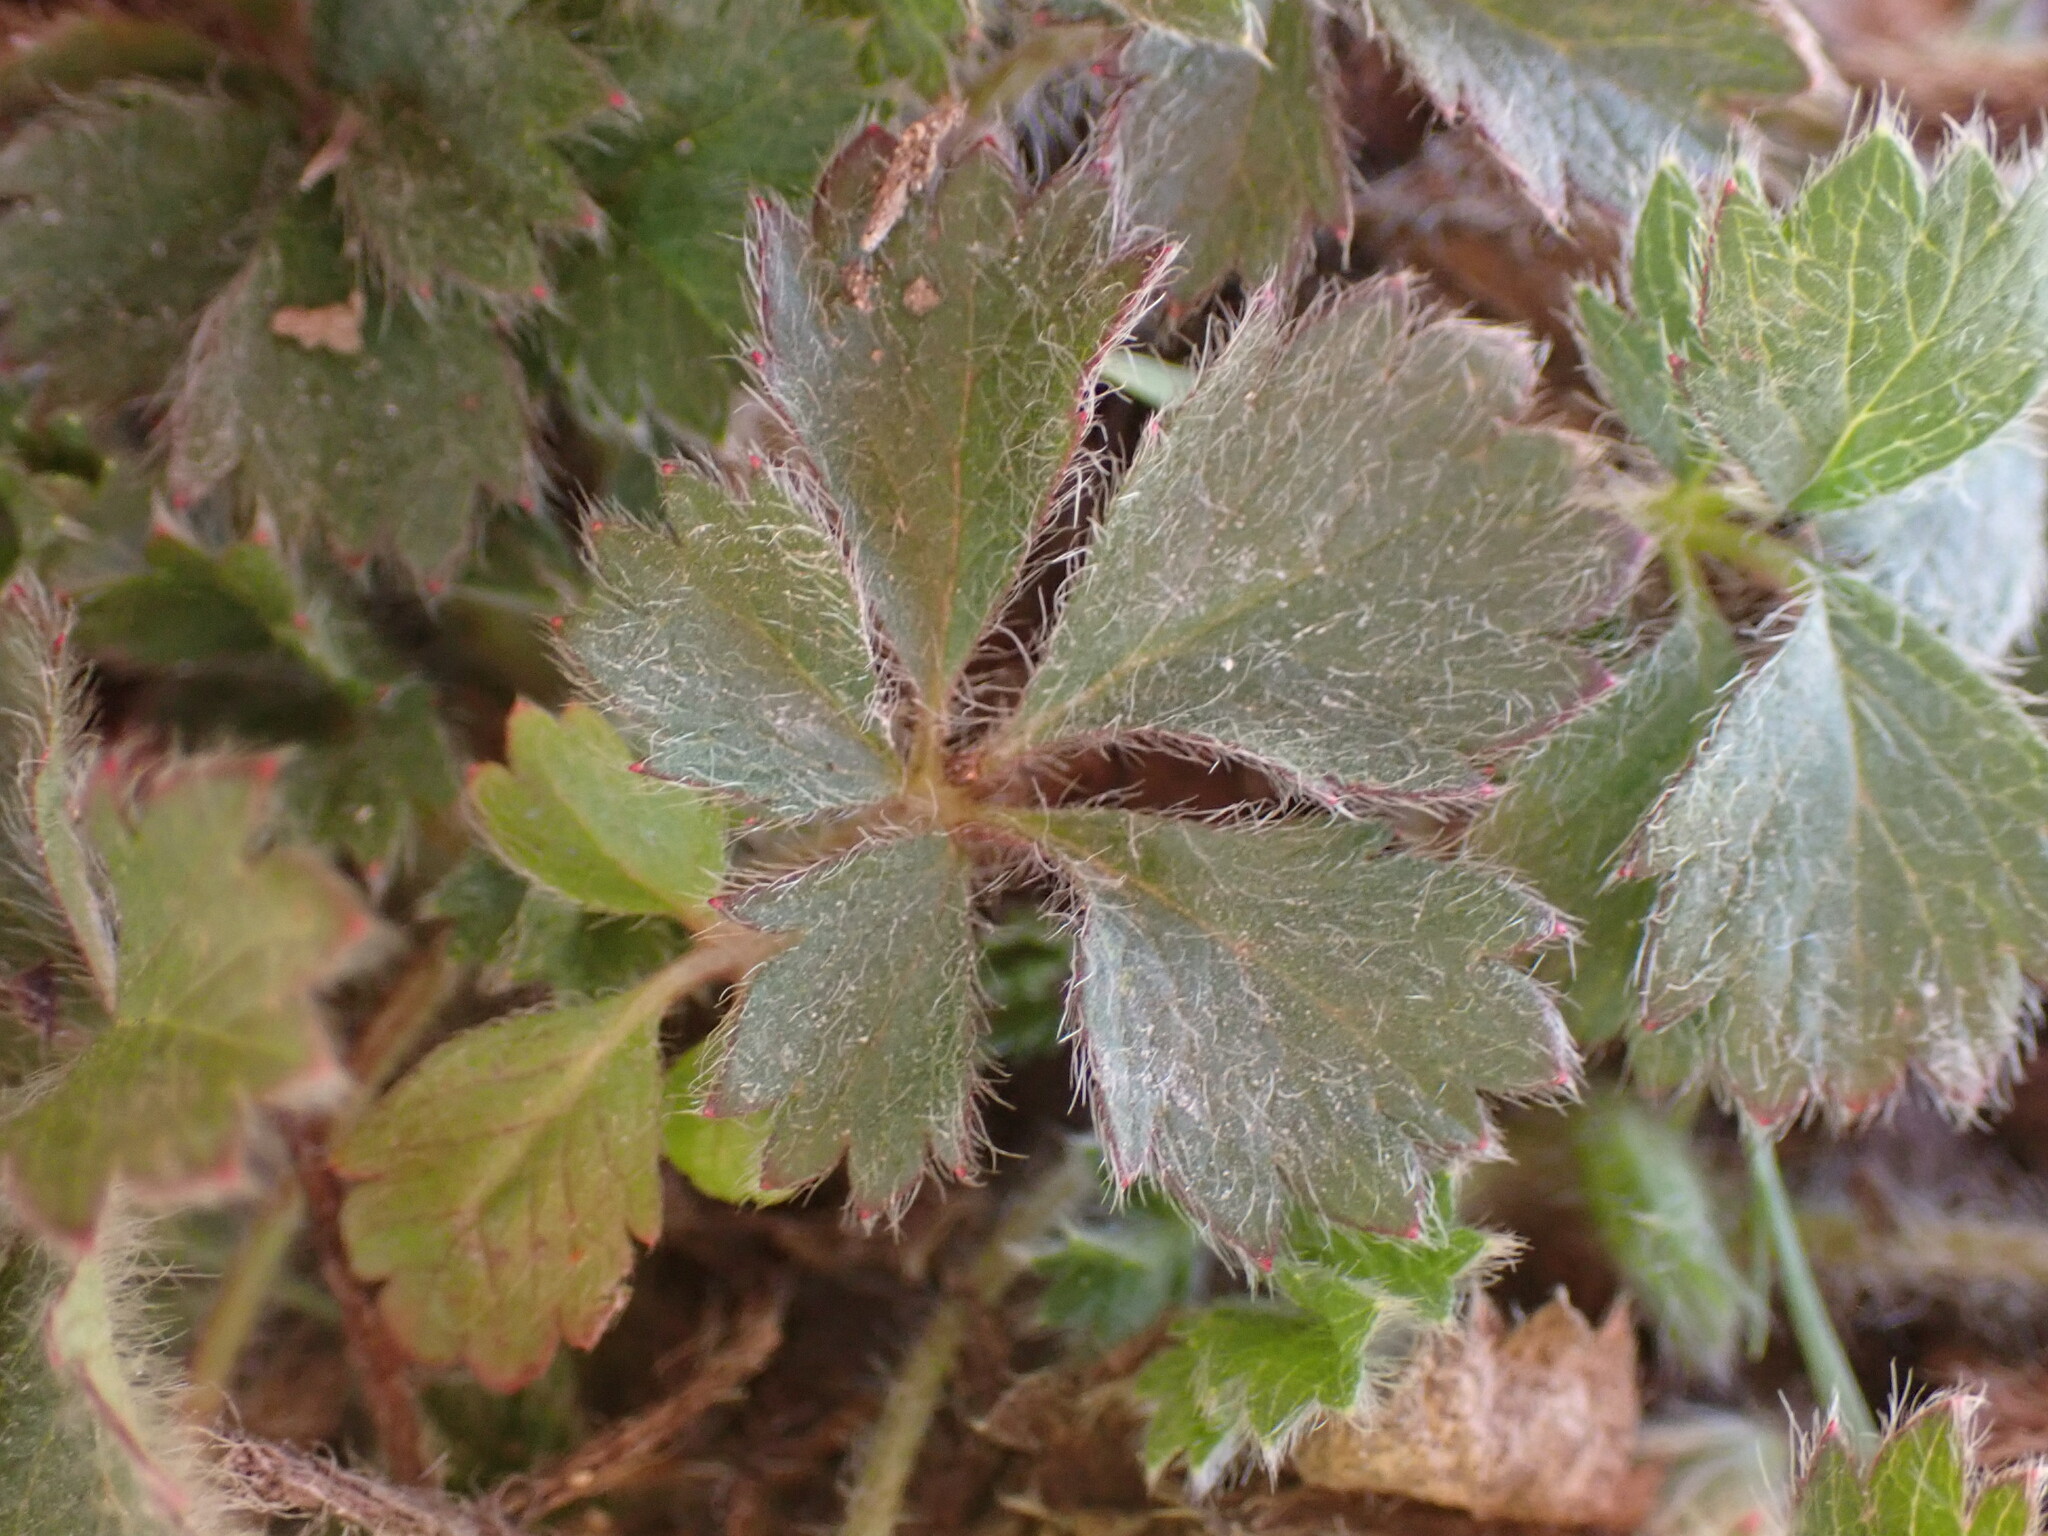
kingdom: Plantae
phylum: Tracheophyta
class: Magnoliopsida
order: Rosales
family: Rosaceae
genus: Potentilla
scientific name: Potentilla verna
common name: Spring cinquefoil
